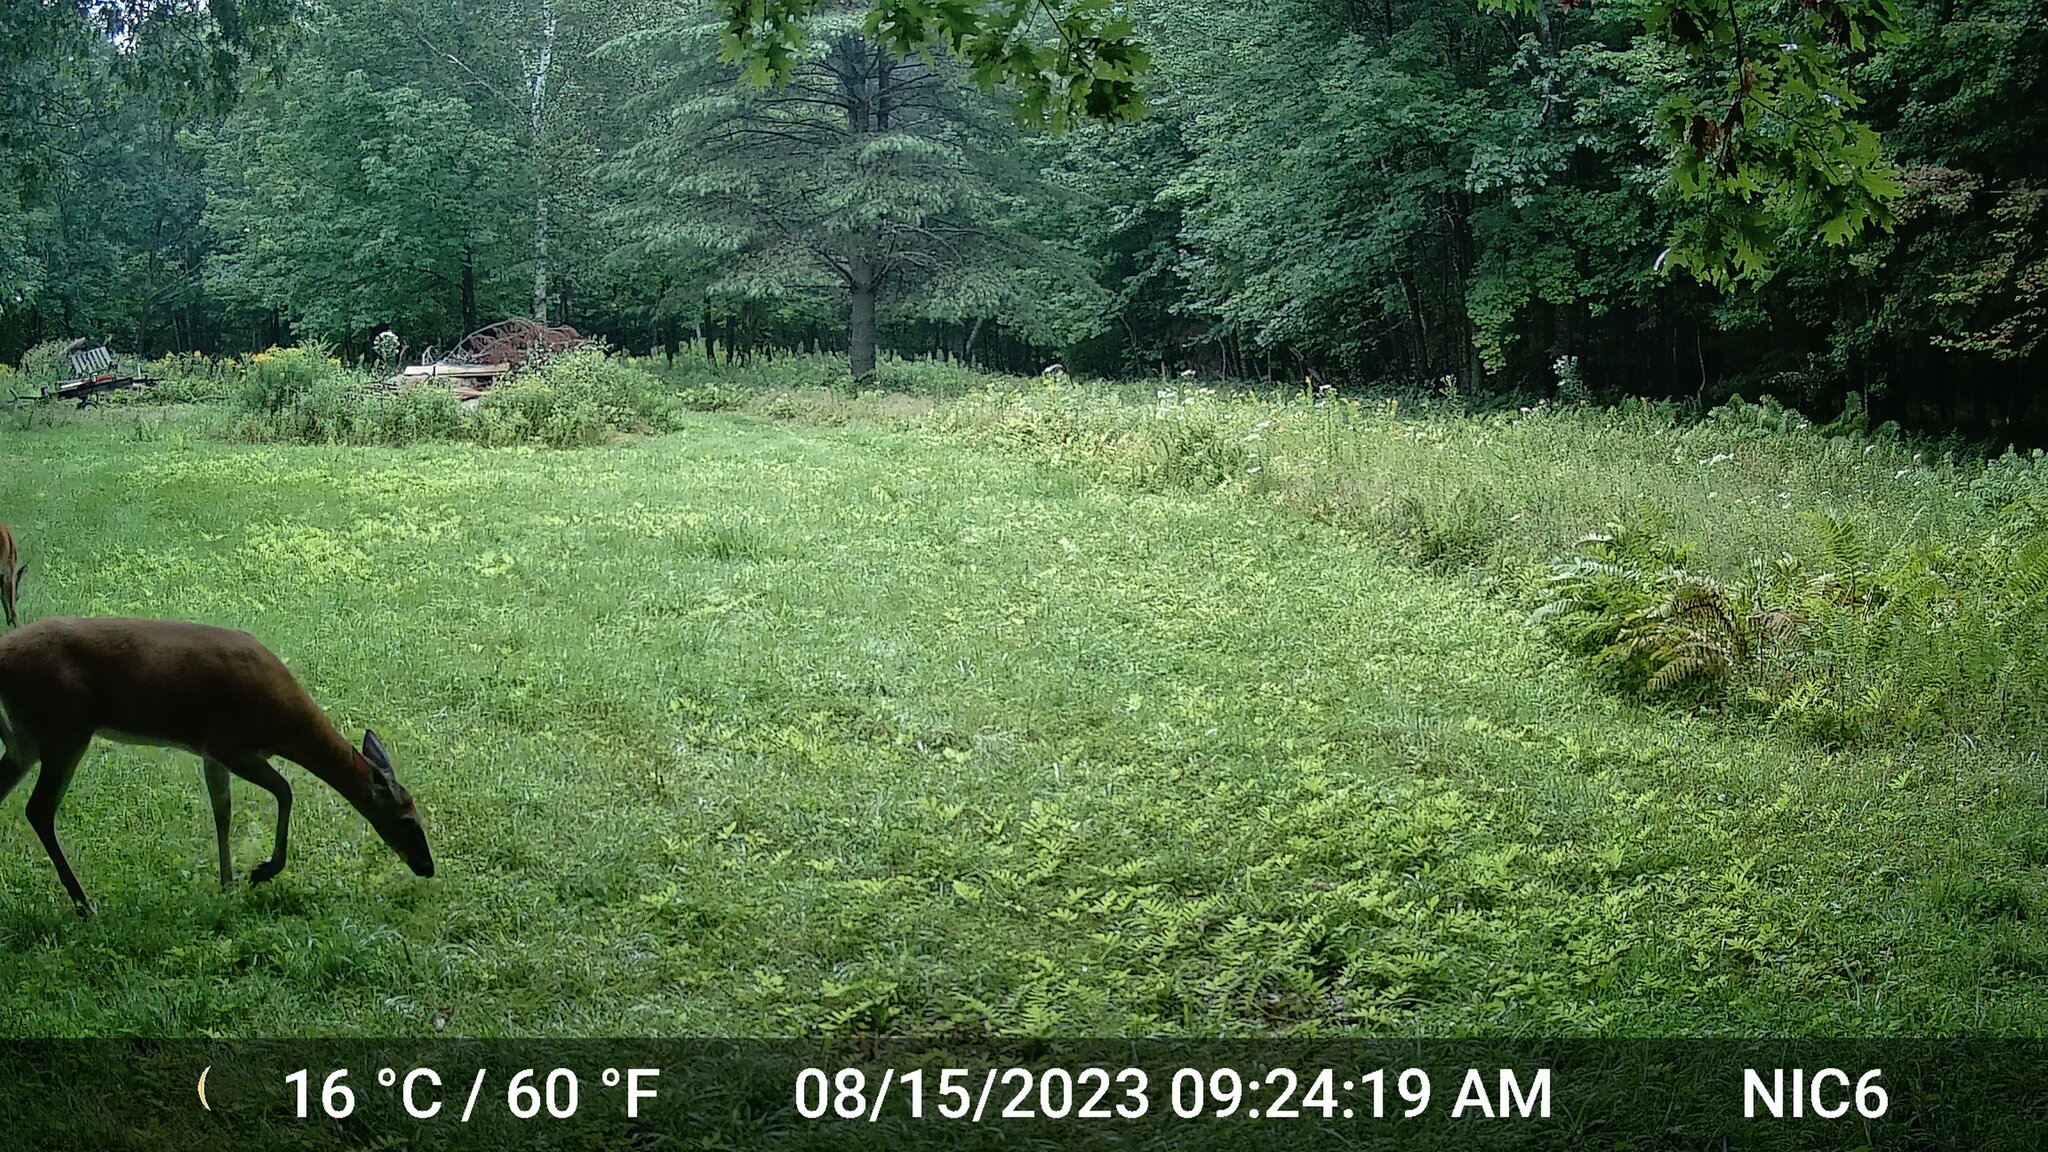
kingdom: Animalia
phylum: Chordata
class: Mammalia
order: Artiodactyla
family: Cervidae
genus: Odocoileus
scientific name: Odocoileus virginianus
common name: White-tailed deer
